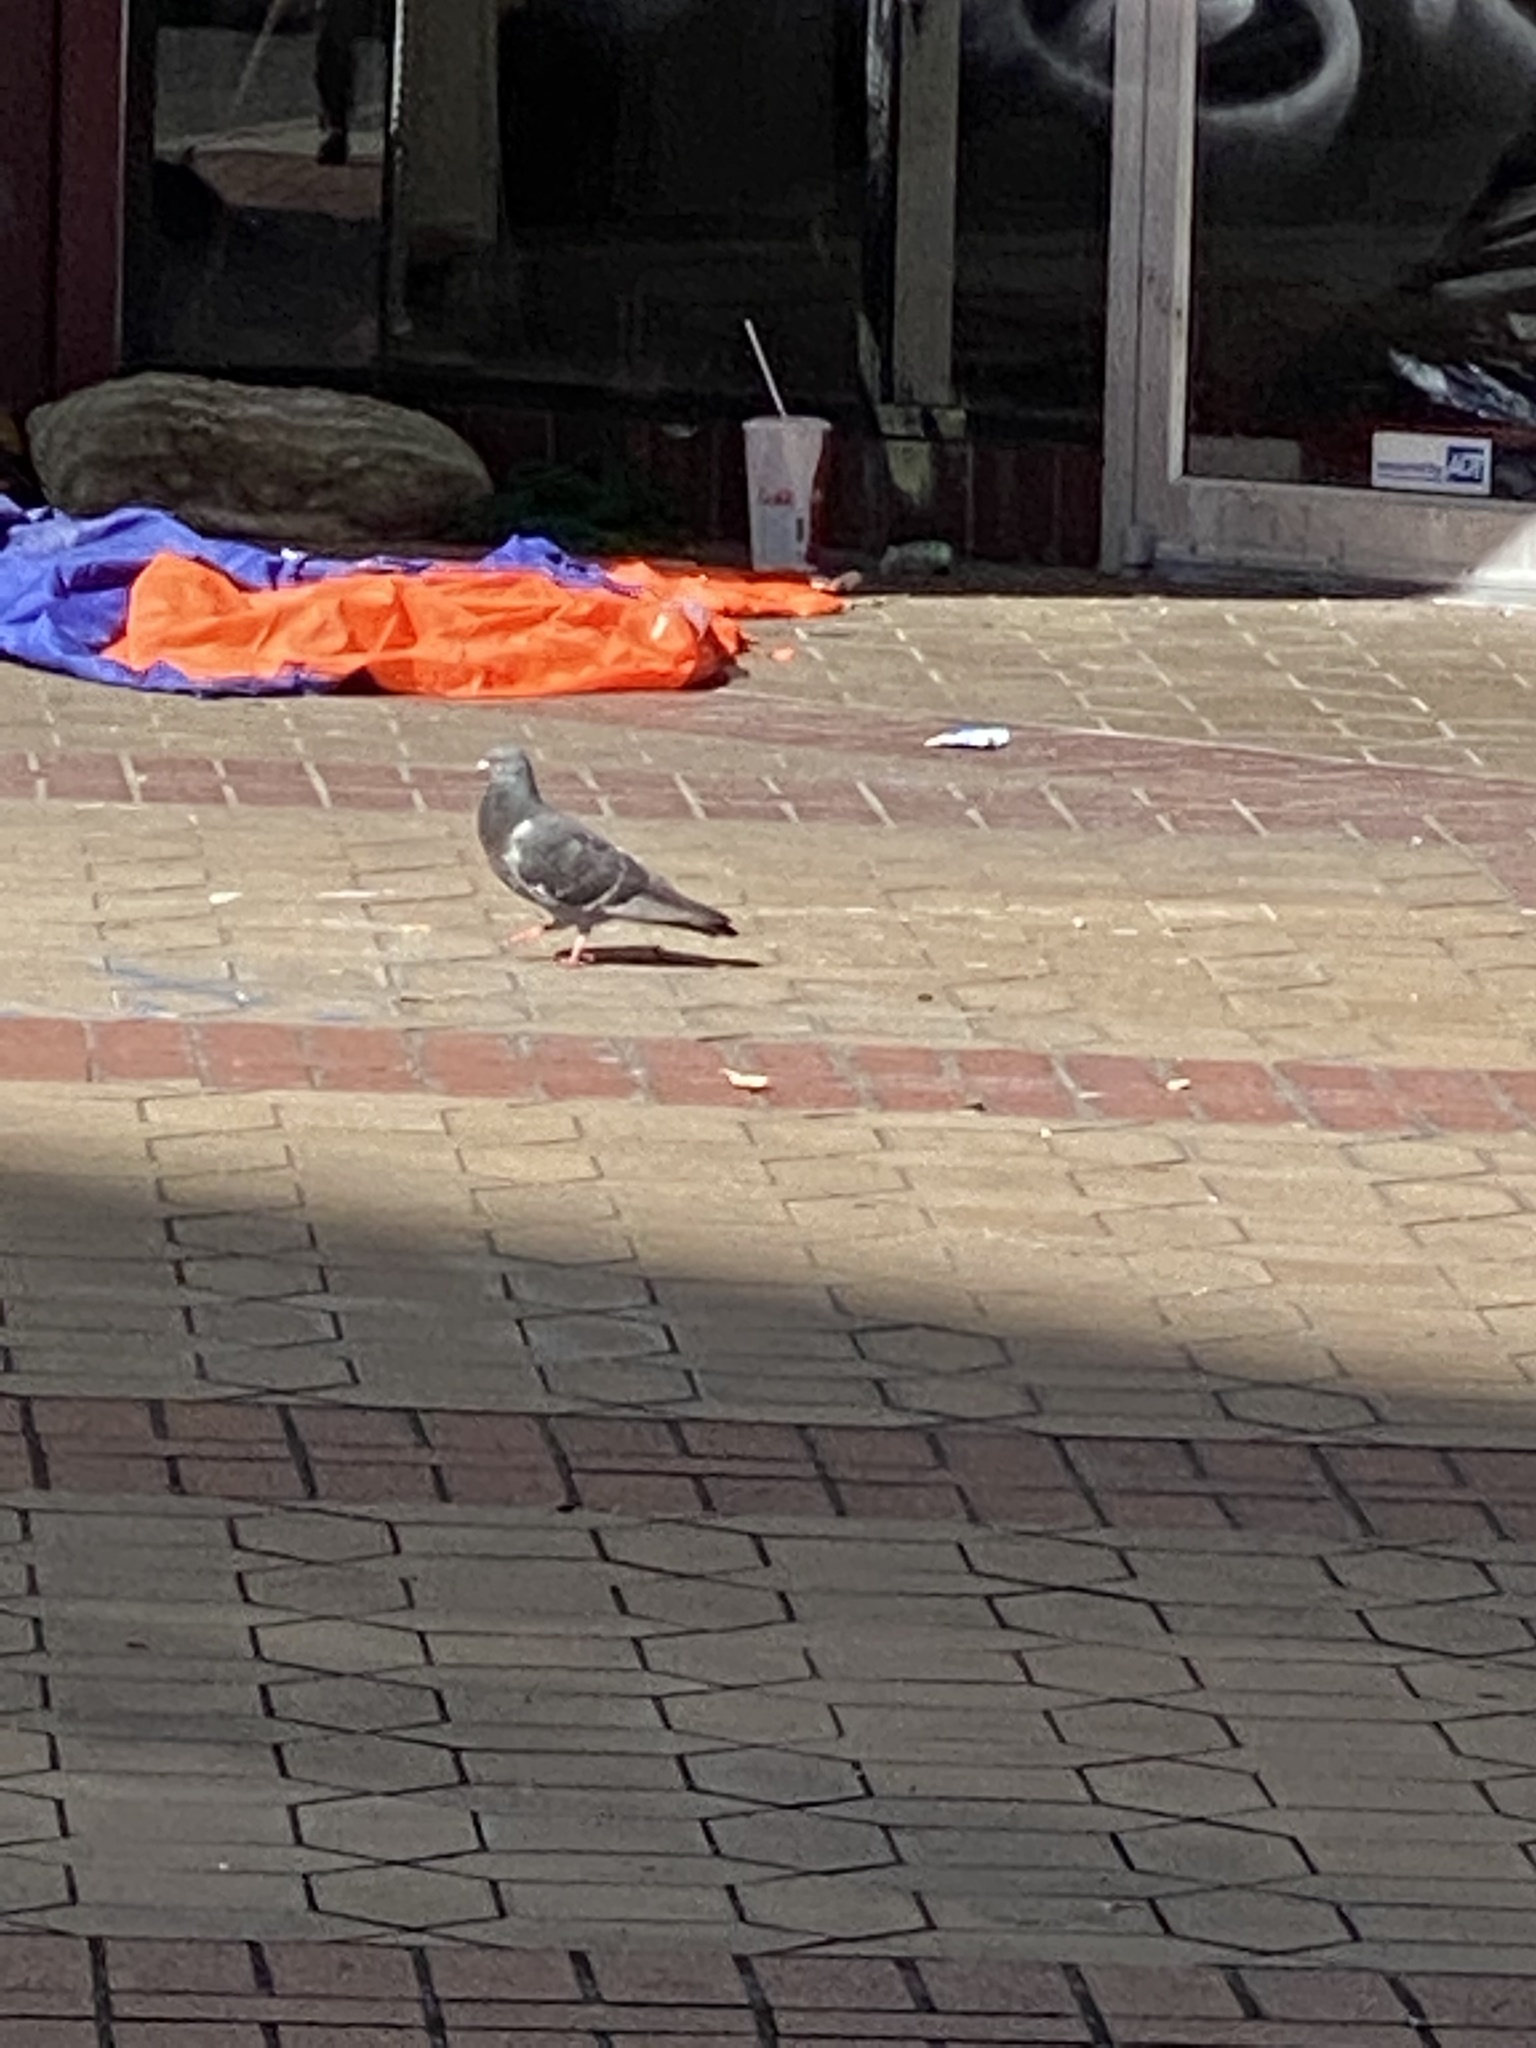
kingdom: Animalia
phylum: Chordata
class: Aves
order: Columbiformes
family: Columbidae
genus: Columba
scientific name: Columba livia
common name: Rock pigeon
